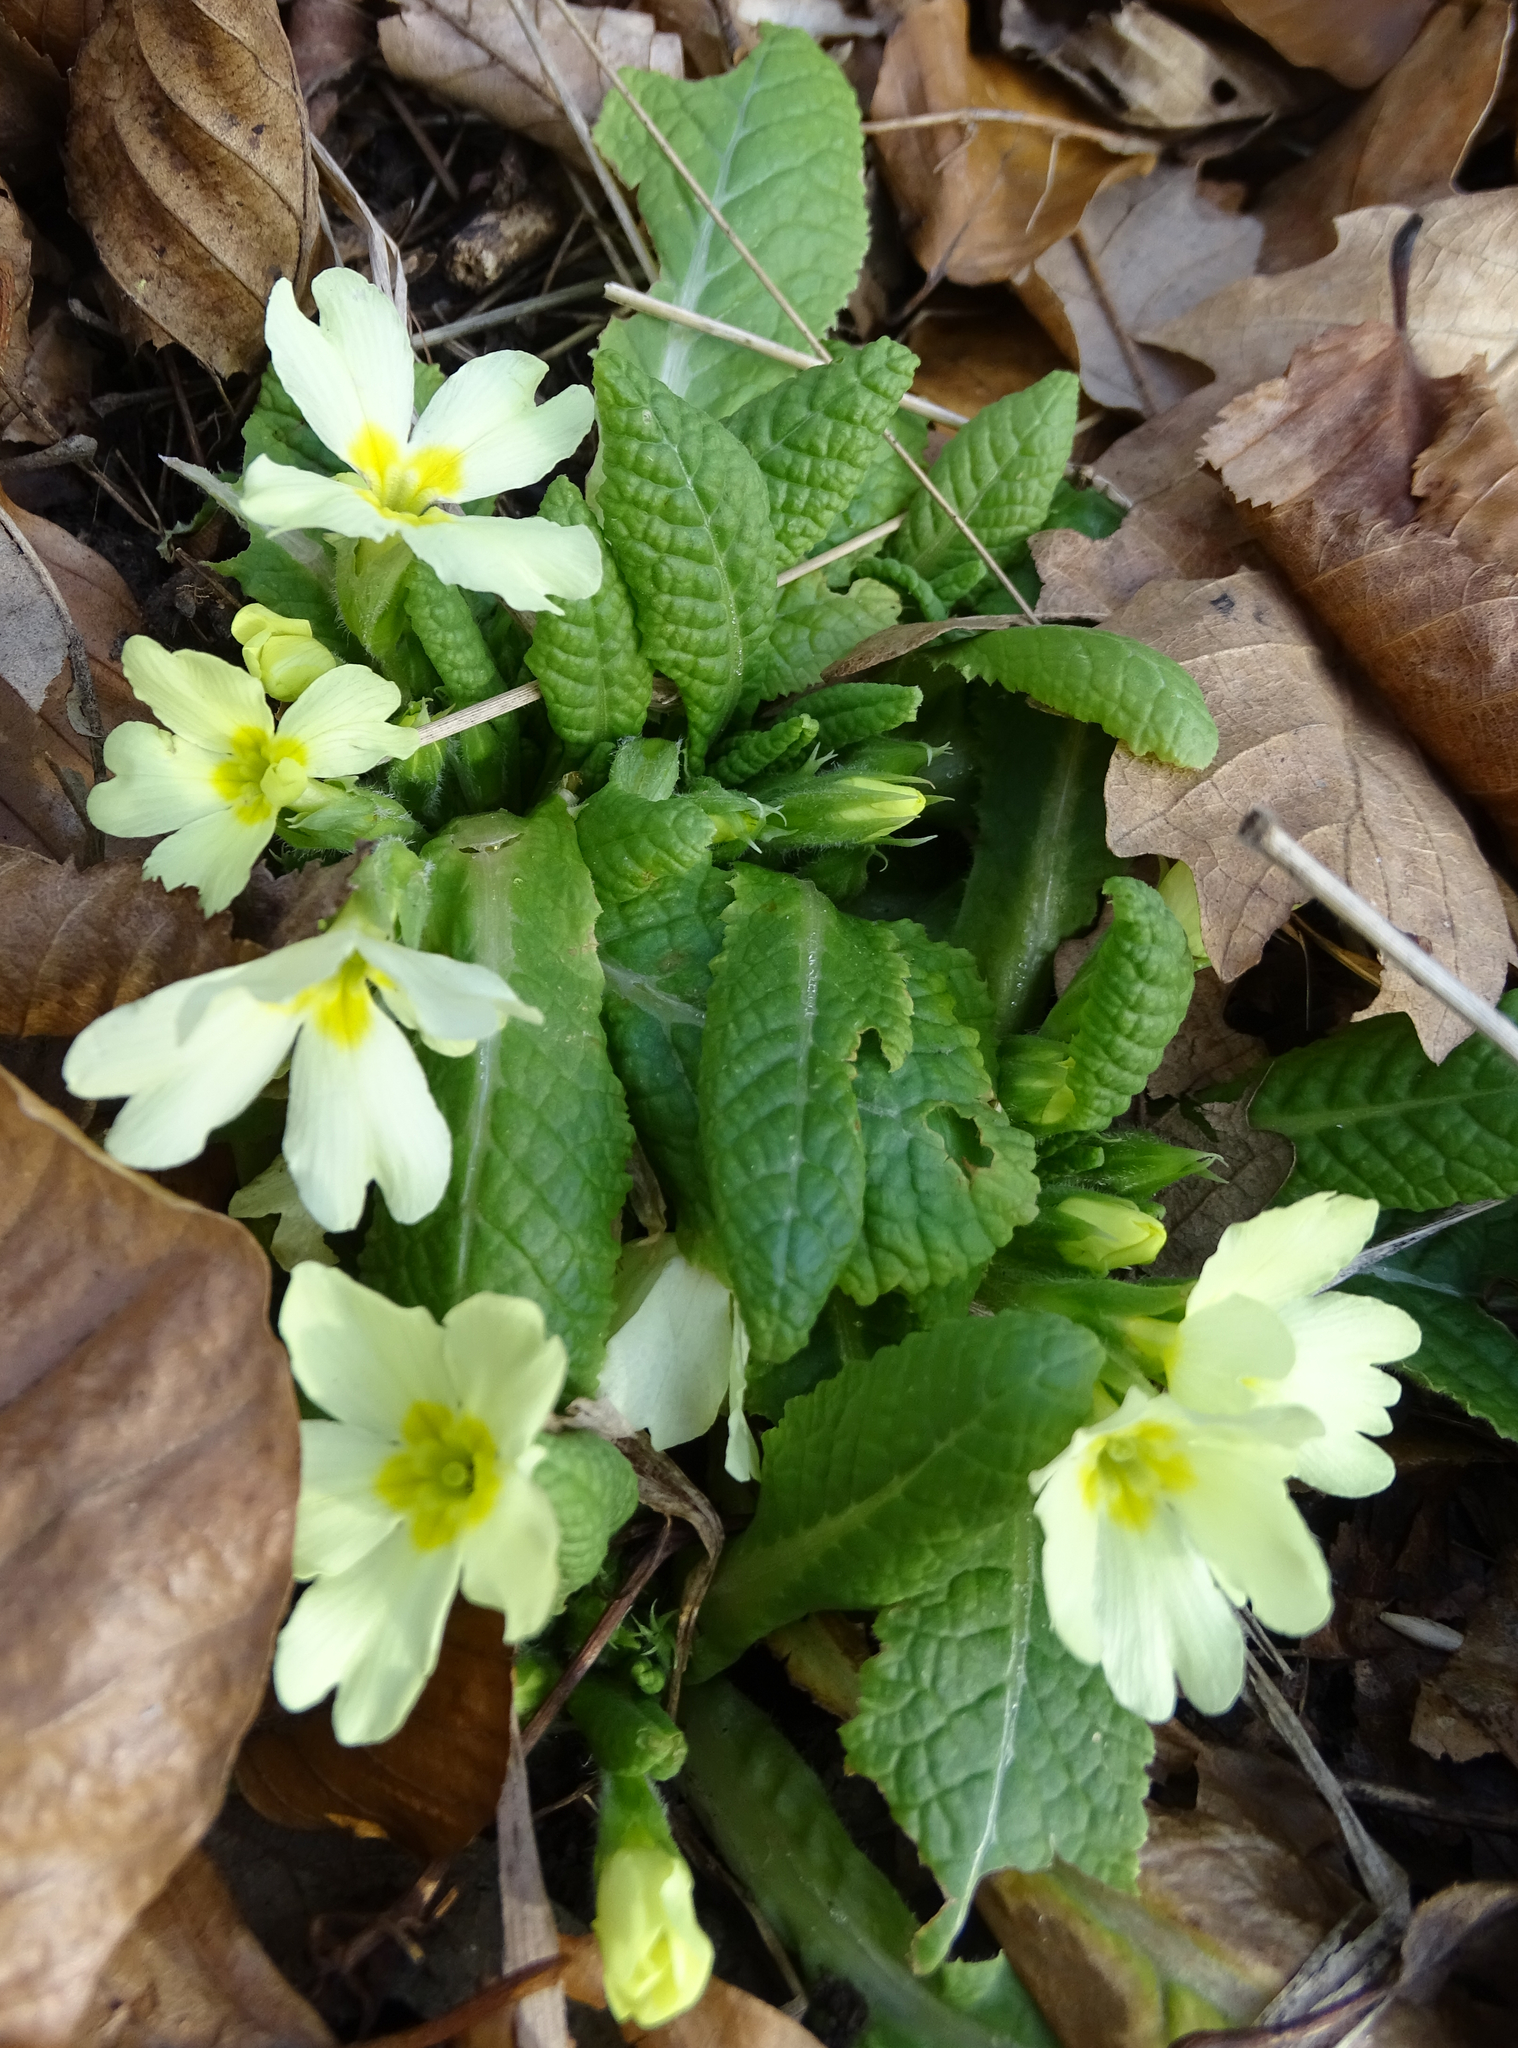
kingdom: Plantae
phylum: Tracheophyta
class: Magnoliopsida
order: Ericales
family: Primulaceae
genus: Primula
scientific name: Primula vulgaris
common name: Primrose
